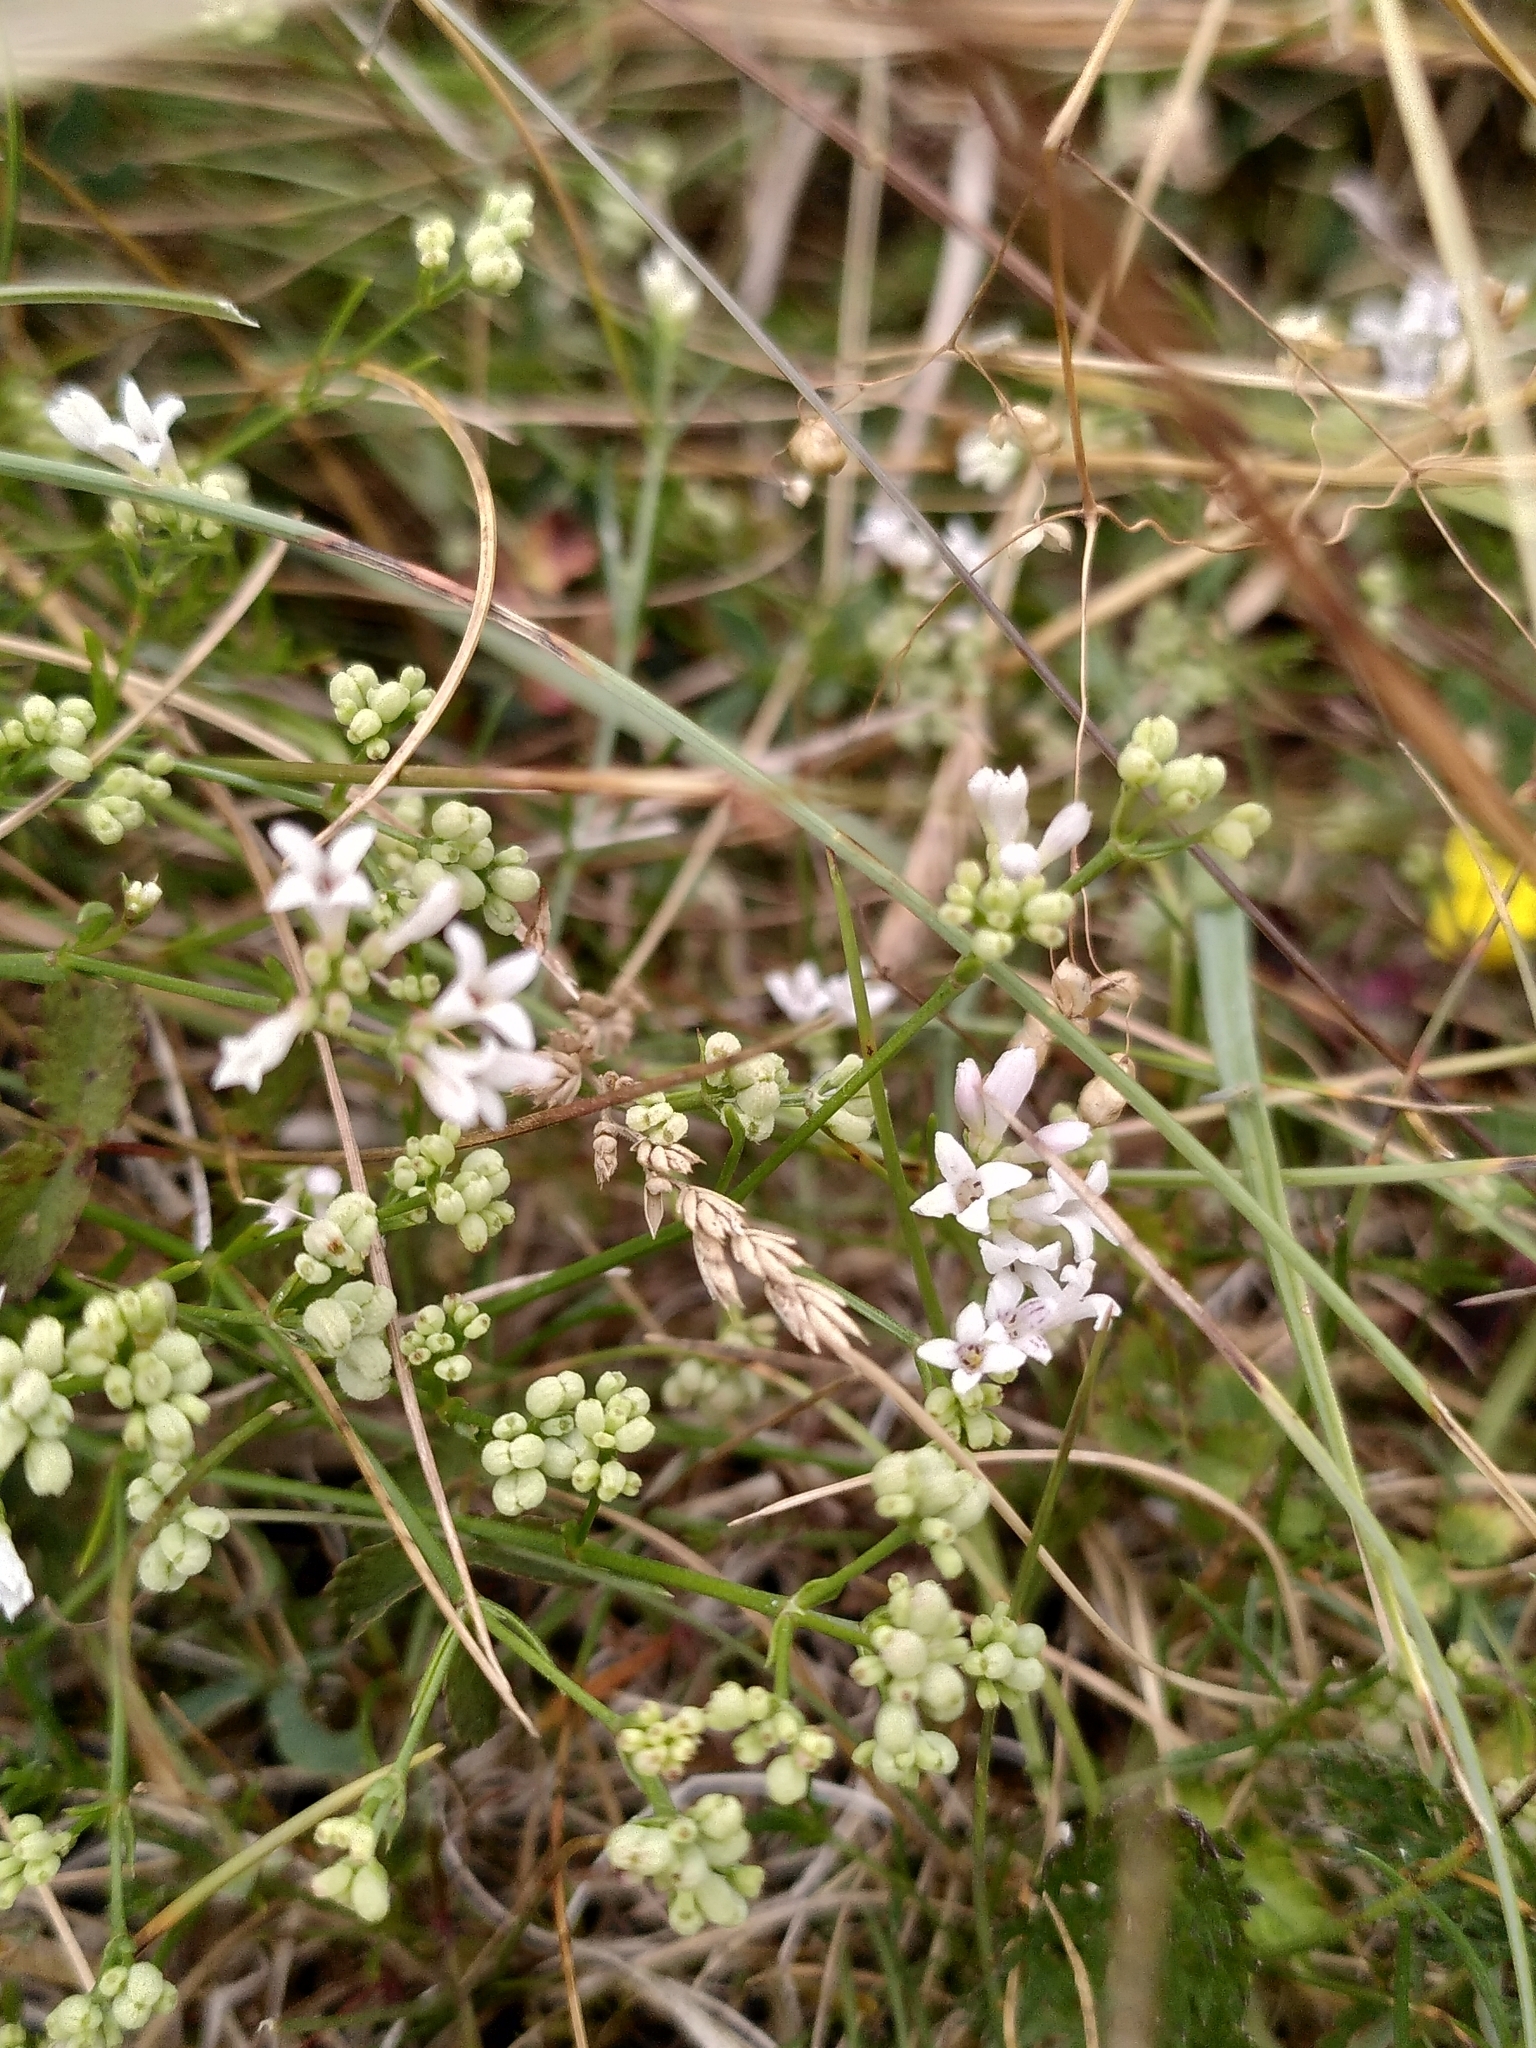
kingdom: Plantae
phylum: Tracheophyta
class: Magnoliopsida
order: Gentianales
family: Rubiaceae
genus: Cynanchica
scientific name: Cynanchica pyrenaica
